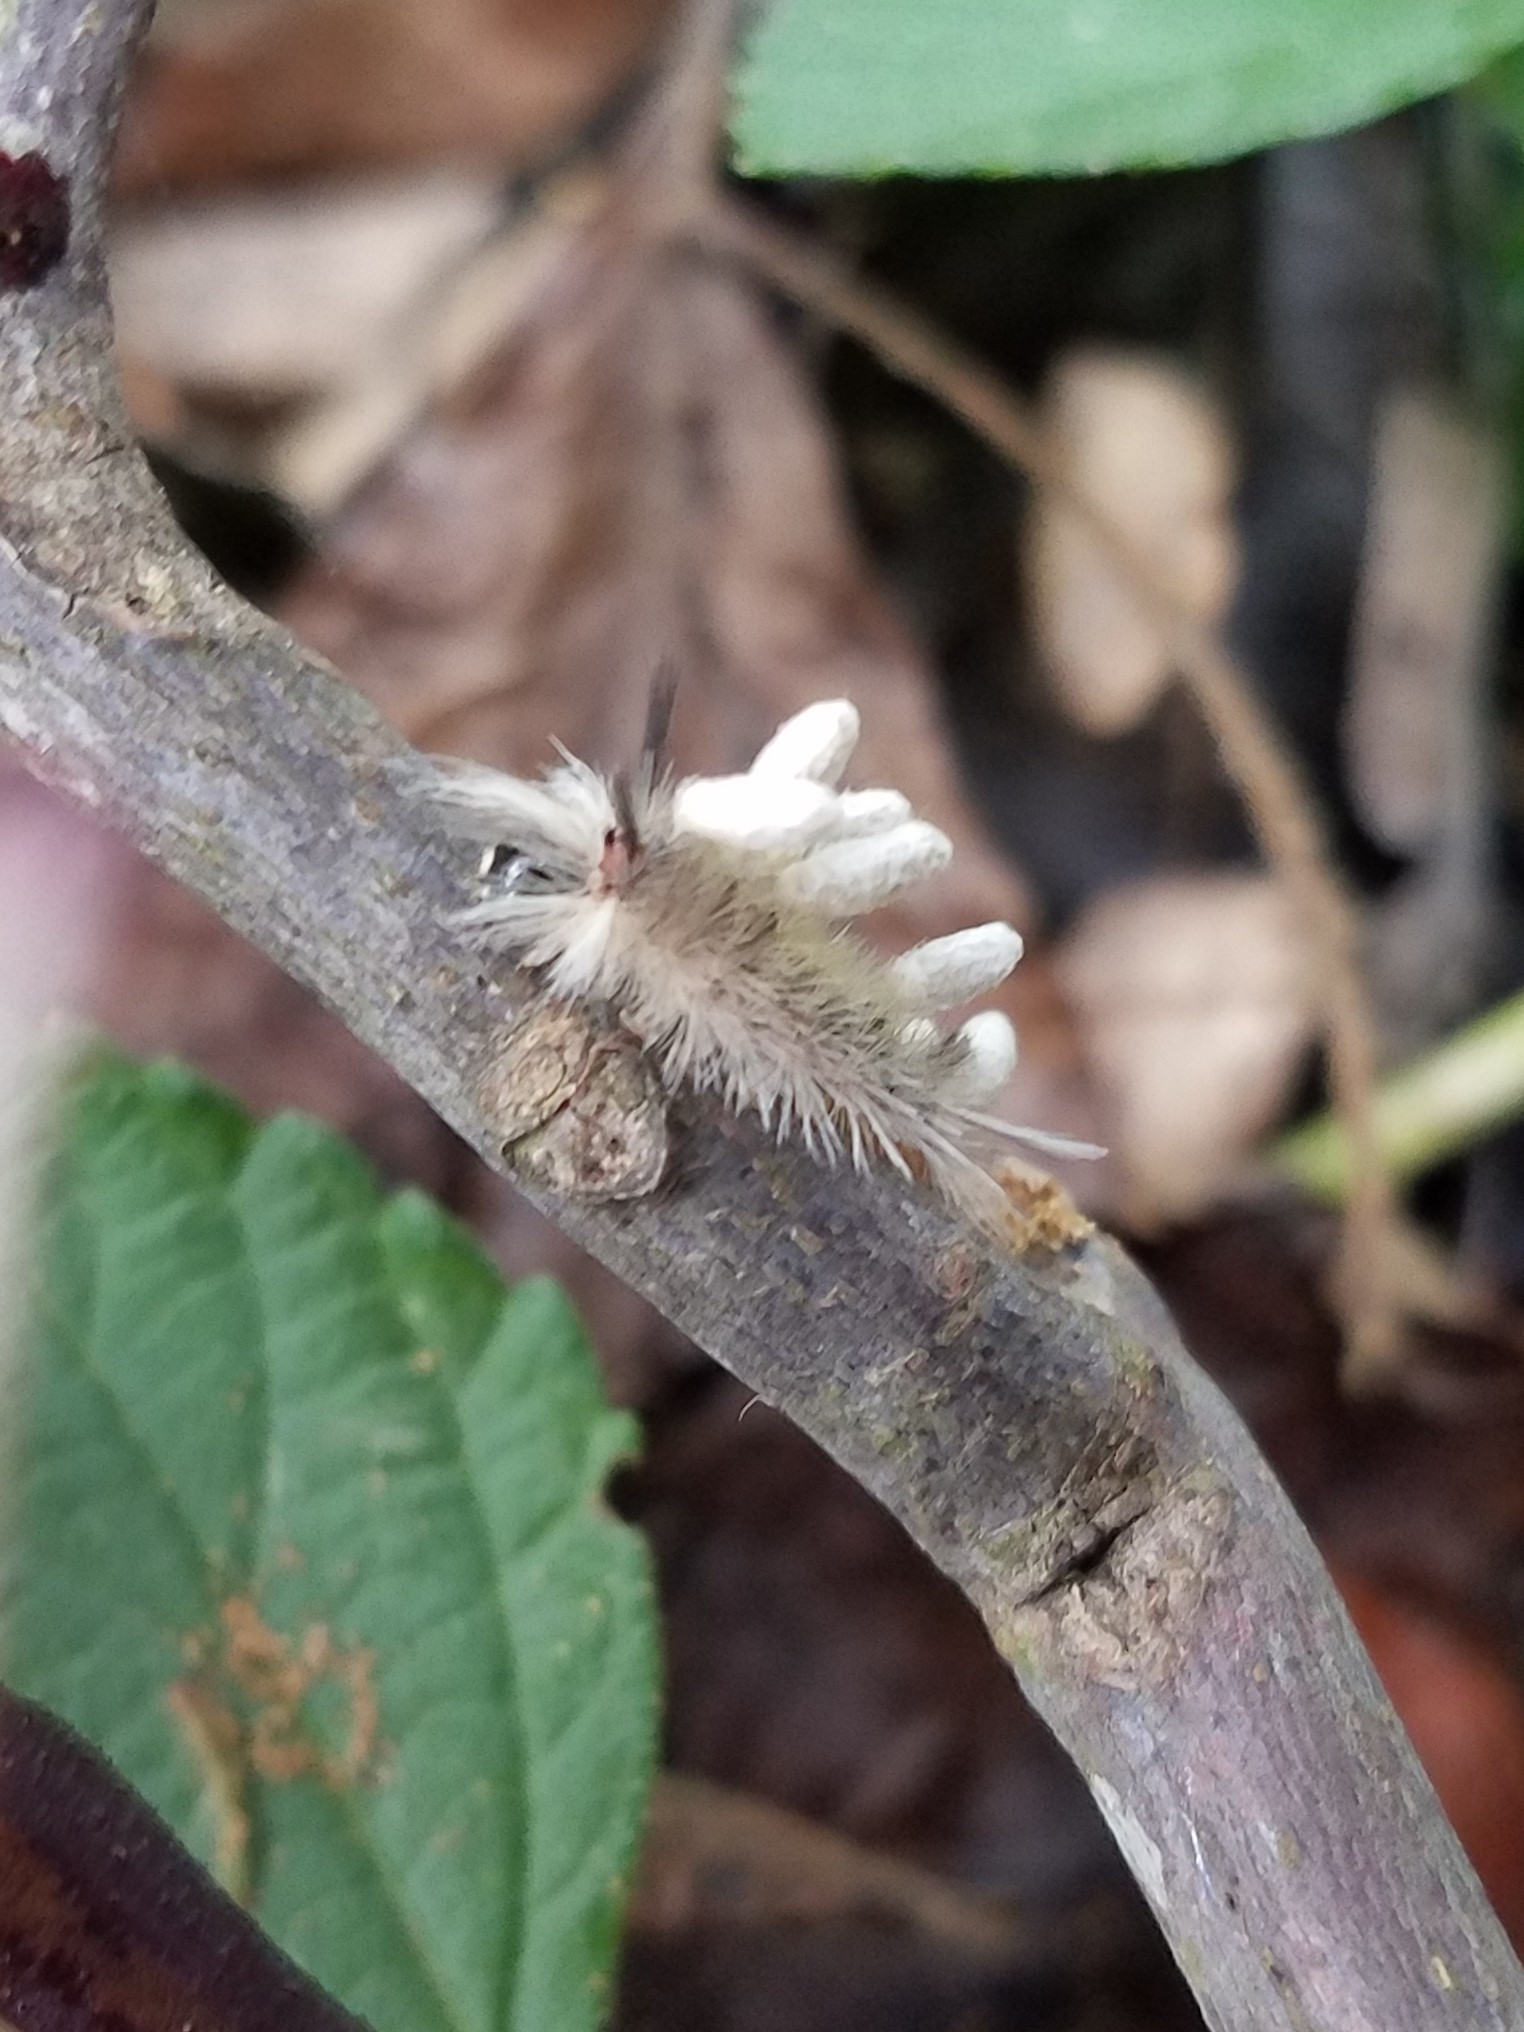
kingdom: Animalia
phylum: Arthropoda
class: Insecta
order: Lepidoptera
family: Erebidae
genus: Halysidota
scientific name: Halysidota tessellaris
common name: Banded tussock moth
